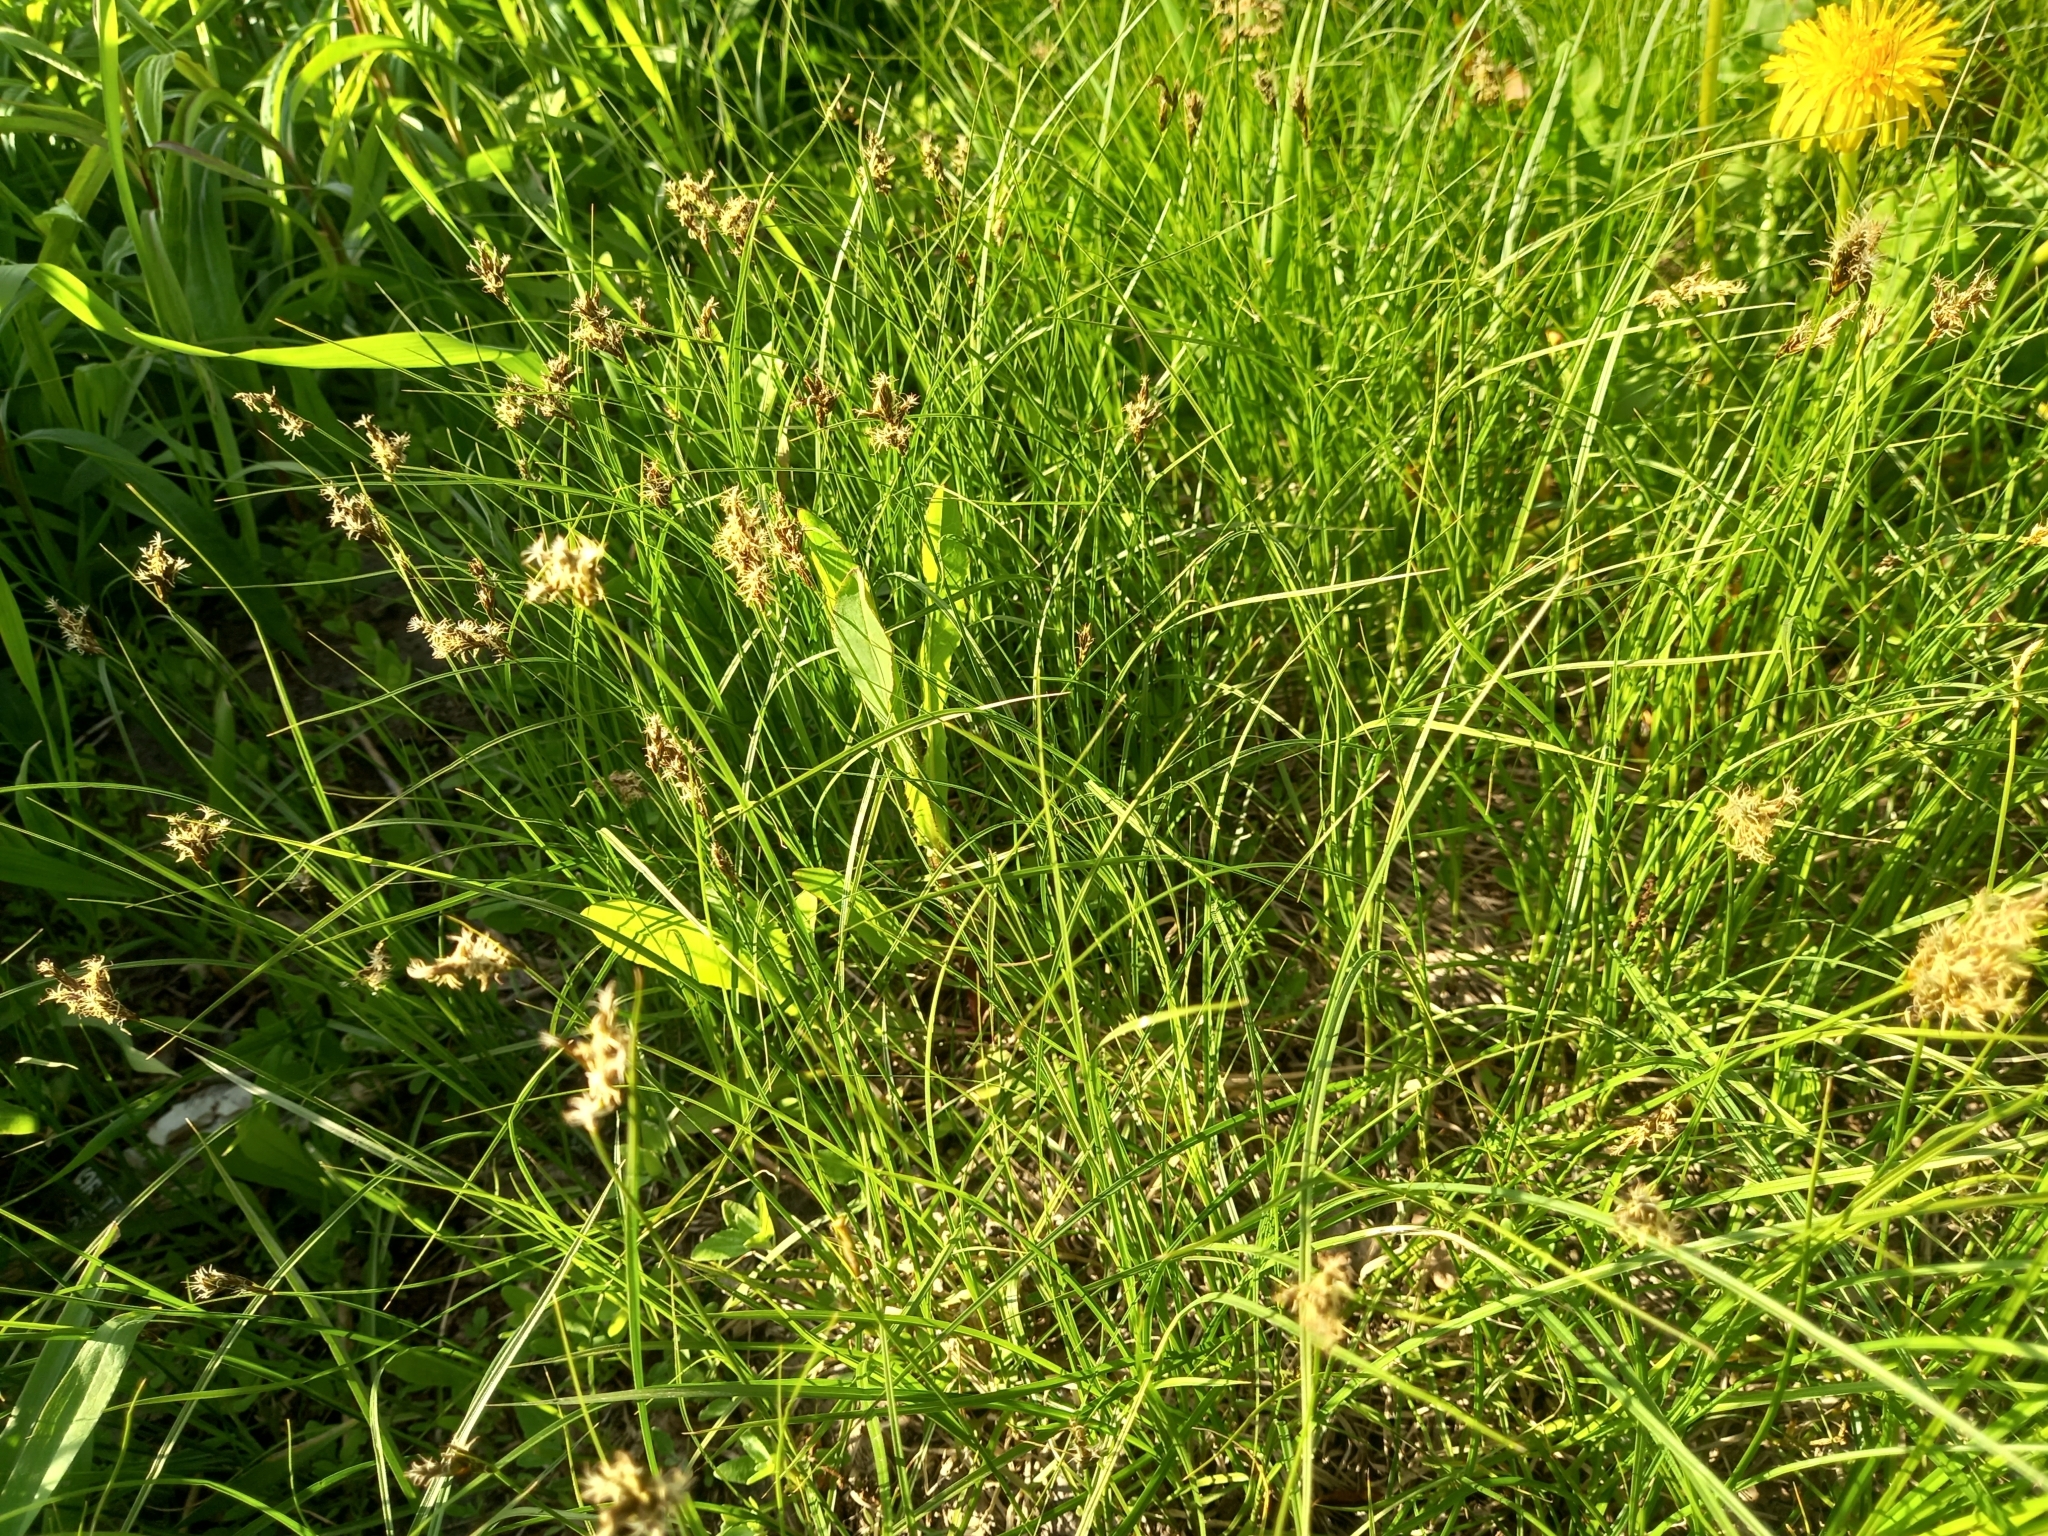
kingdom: Plantae
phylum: Tracheophyta
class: Liliopsida
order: Poales
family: Cyperaceae
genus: Carex
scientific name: Carex praecox
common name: Early sedge
